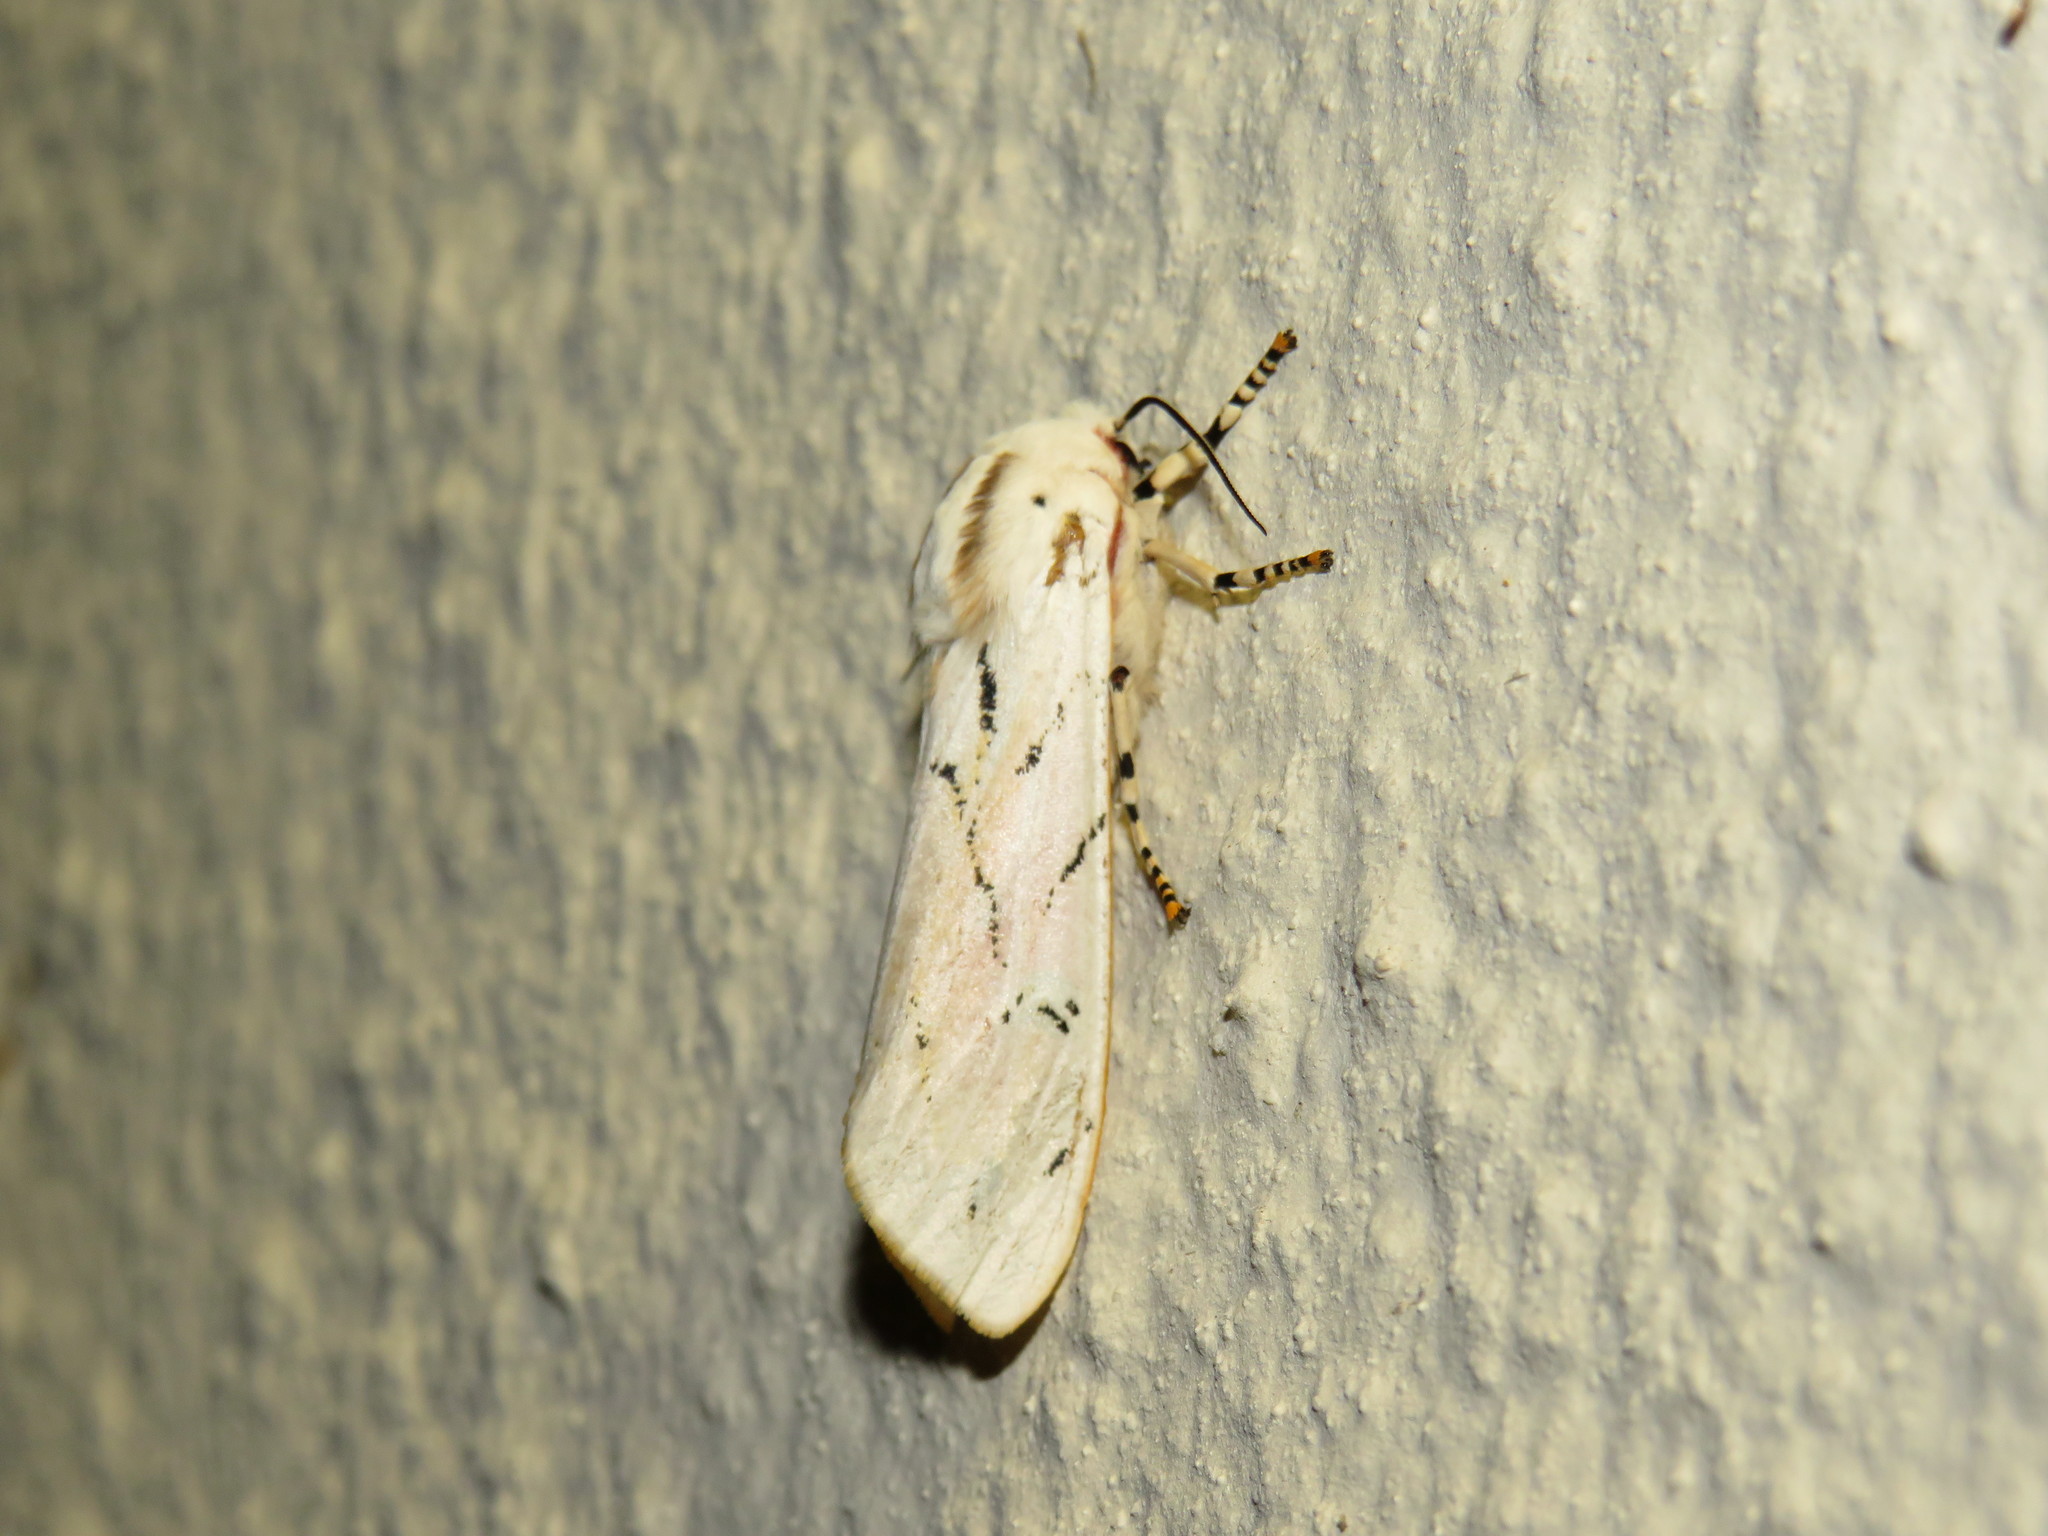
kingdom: Animalia
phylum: Arthropoda
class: Insecta
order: Lepidoptera
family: Erebidae
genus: Rhodogastria
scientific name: Rhodogastria amasis
